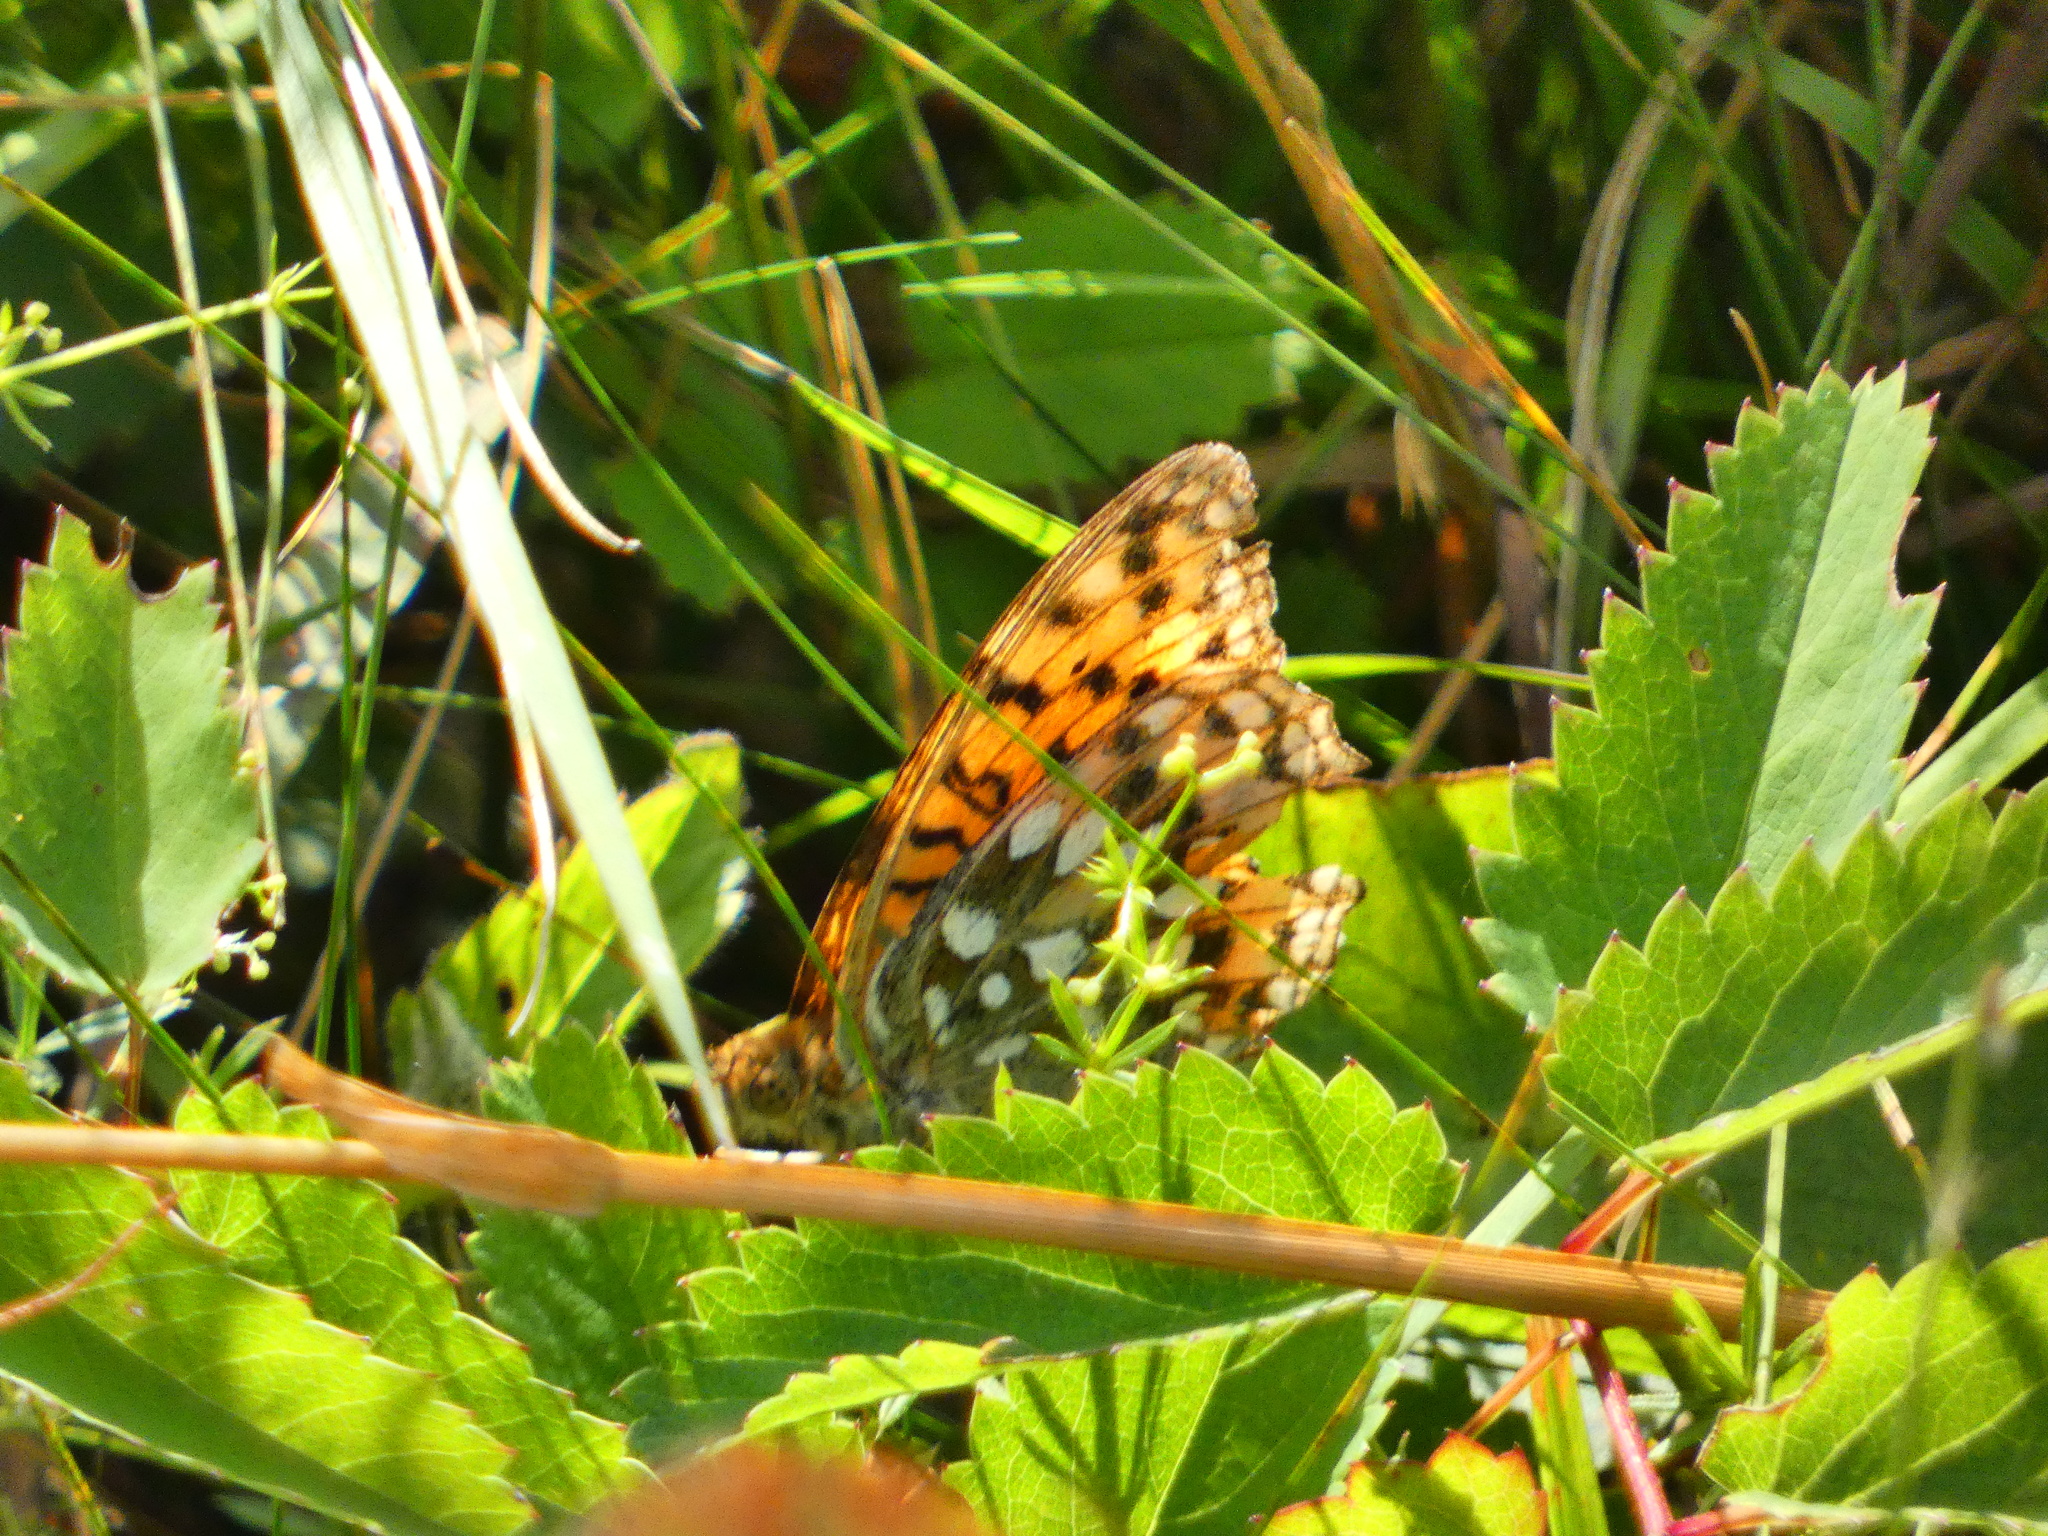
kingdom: Animalia
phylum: Arthropoda
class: Insecta
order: Lepidoptera
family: Nymphalidae
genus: Speyeria
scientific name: Speyeria aglaja
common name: Dark green fritillary
